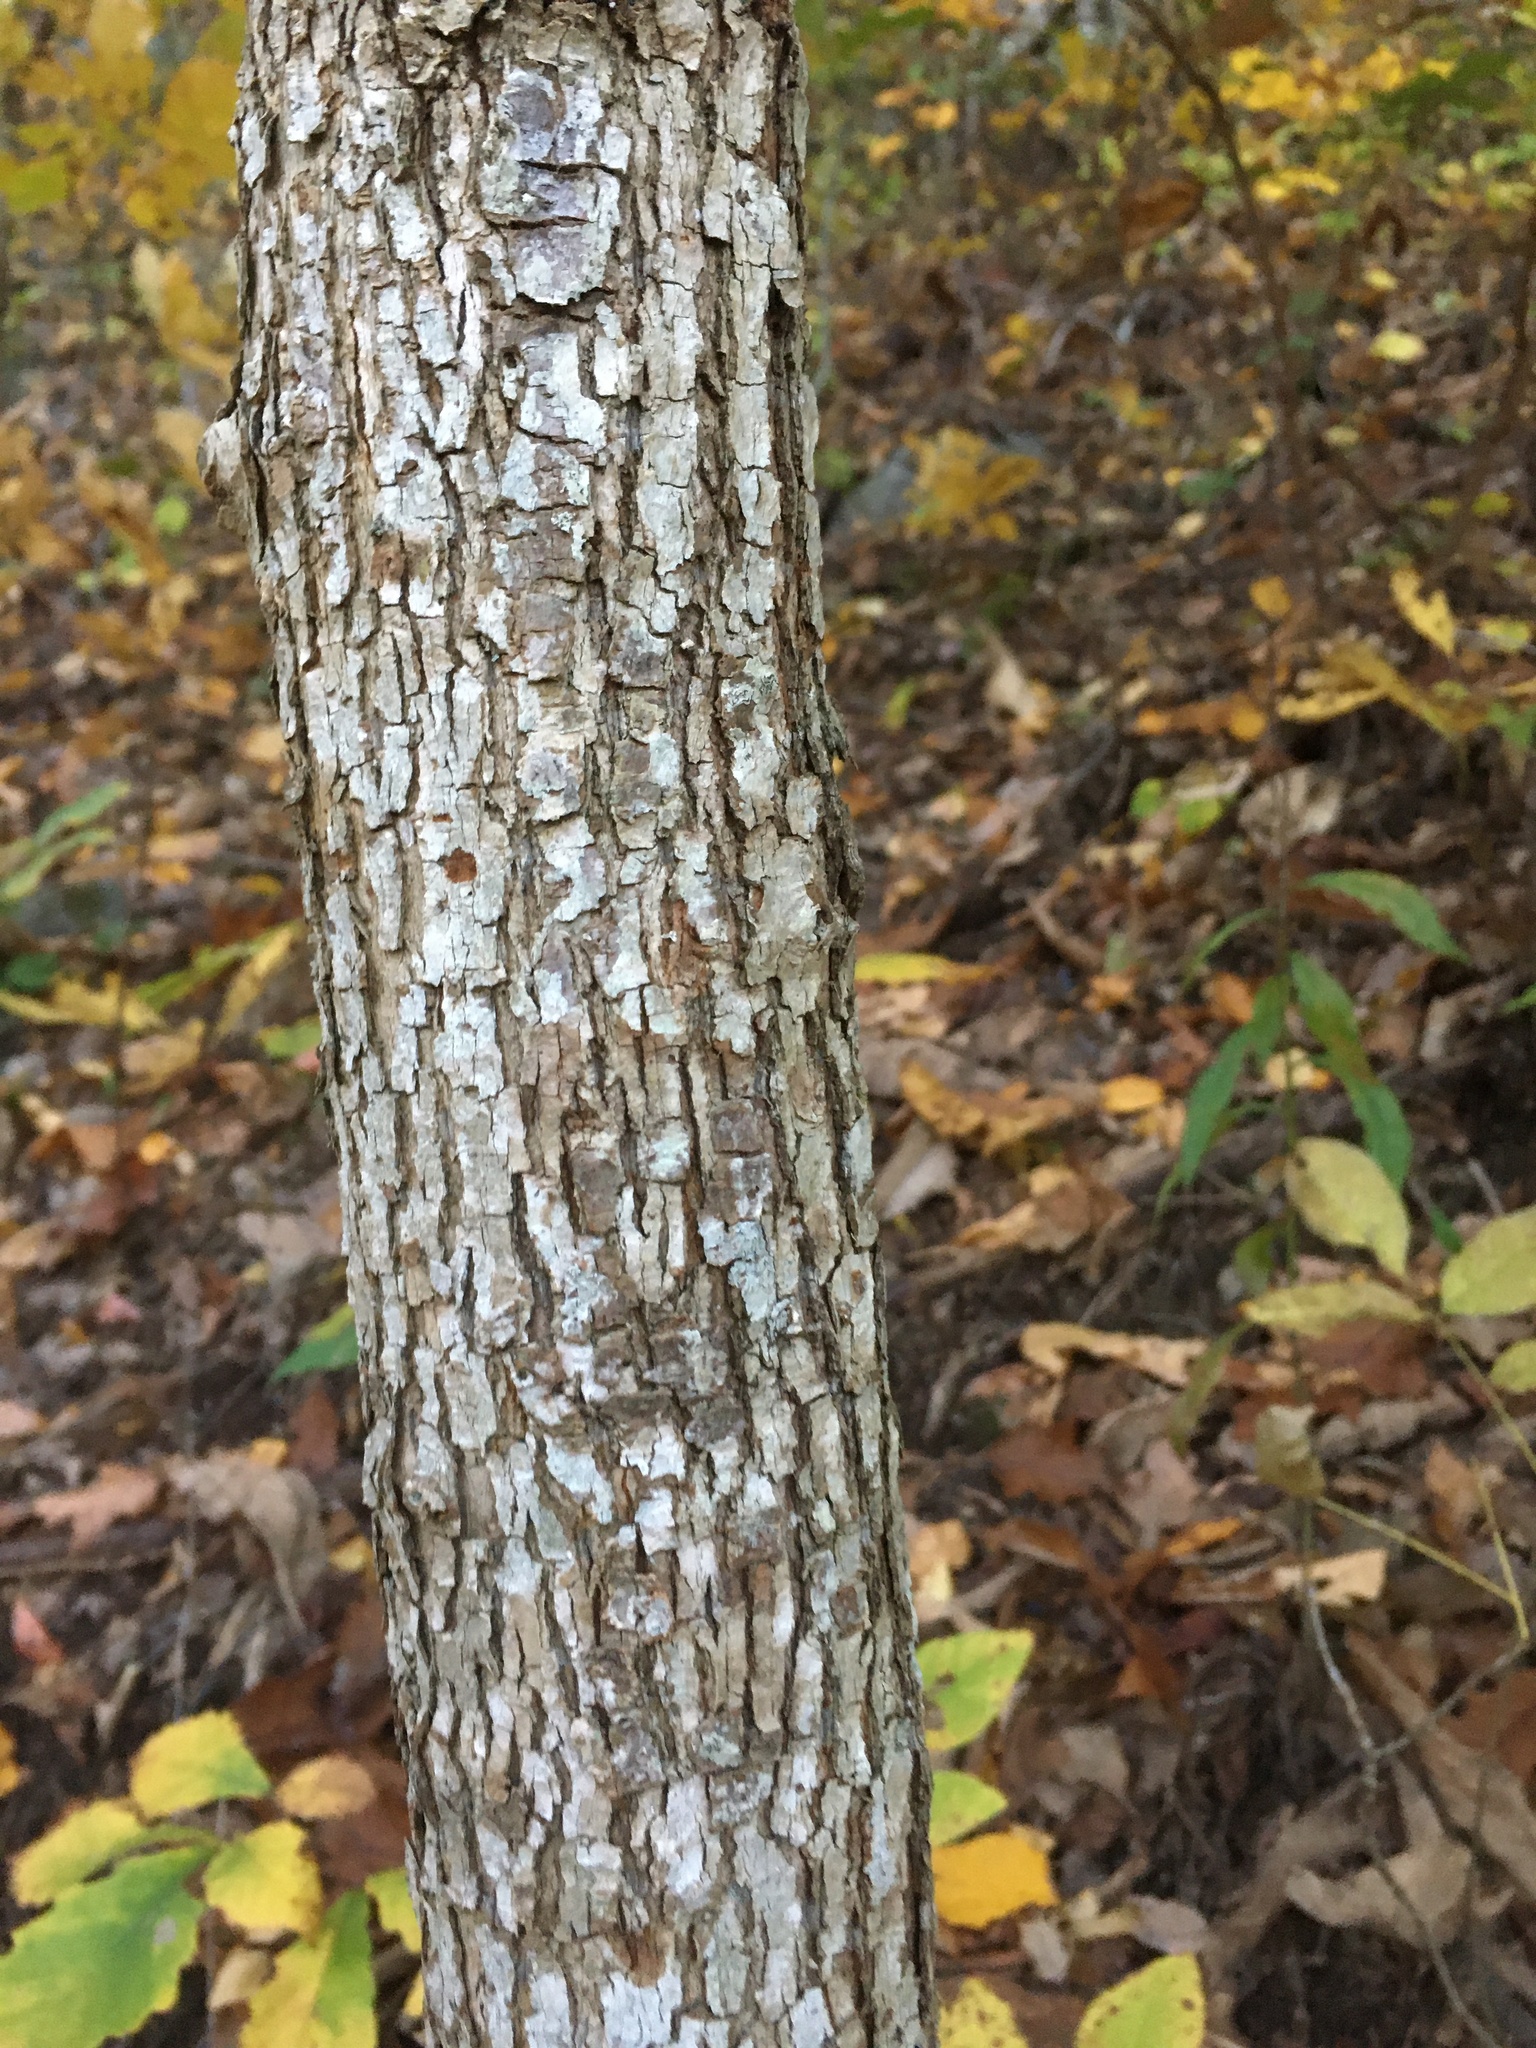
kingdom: Plantae
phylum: Tracheophyta
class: Magnoliopsida
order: Magnoliales
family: Magnoliaceae
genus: Magnolia
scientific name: Magnolia acuminata
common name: Cucumber magnolia
